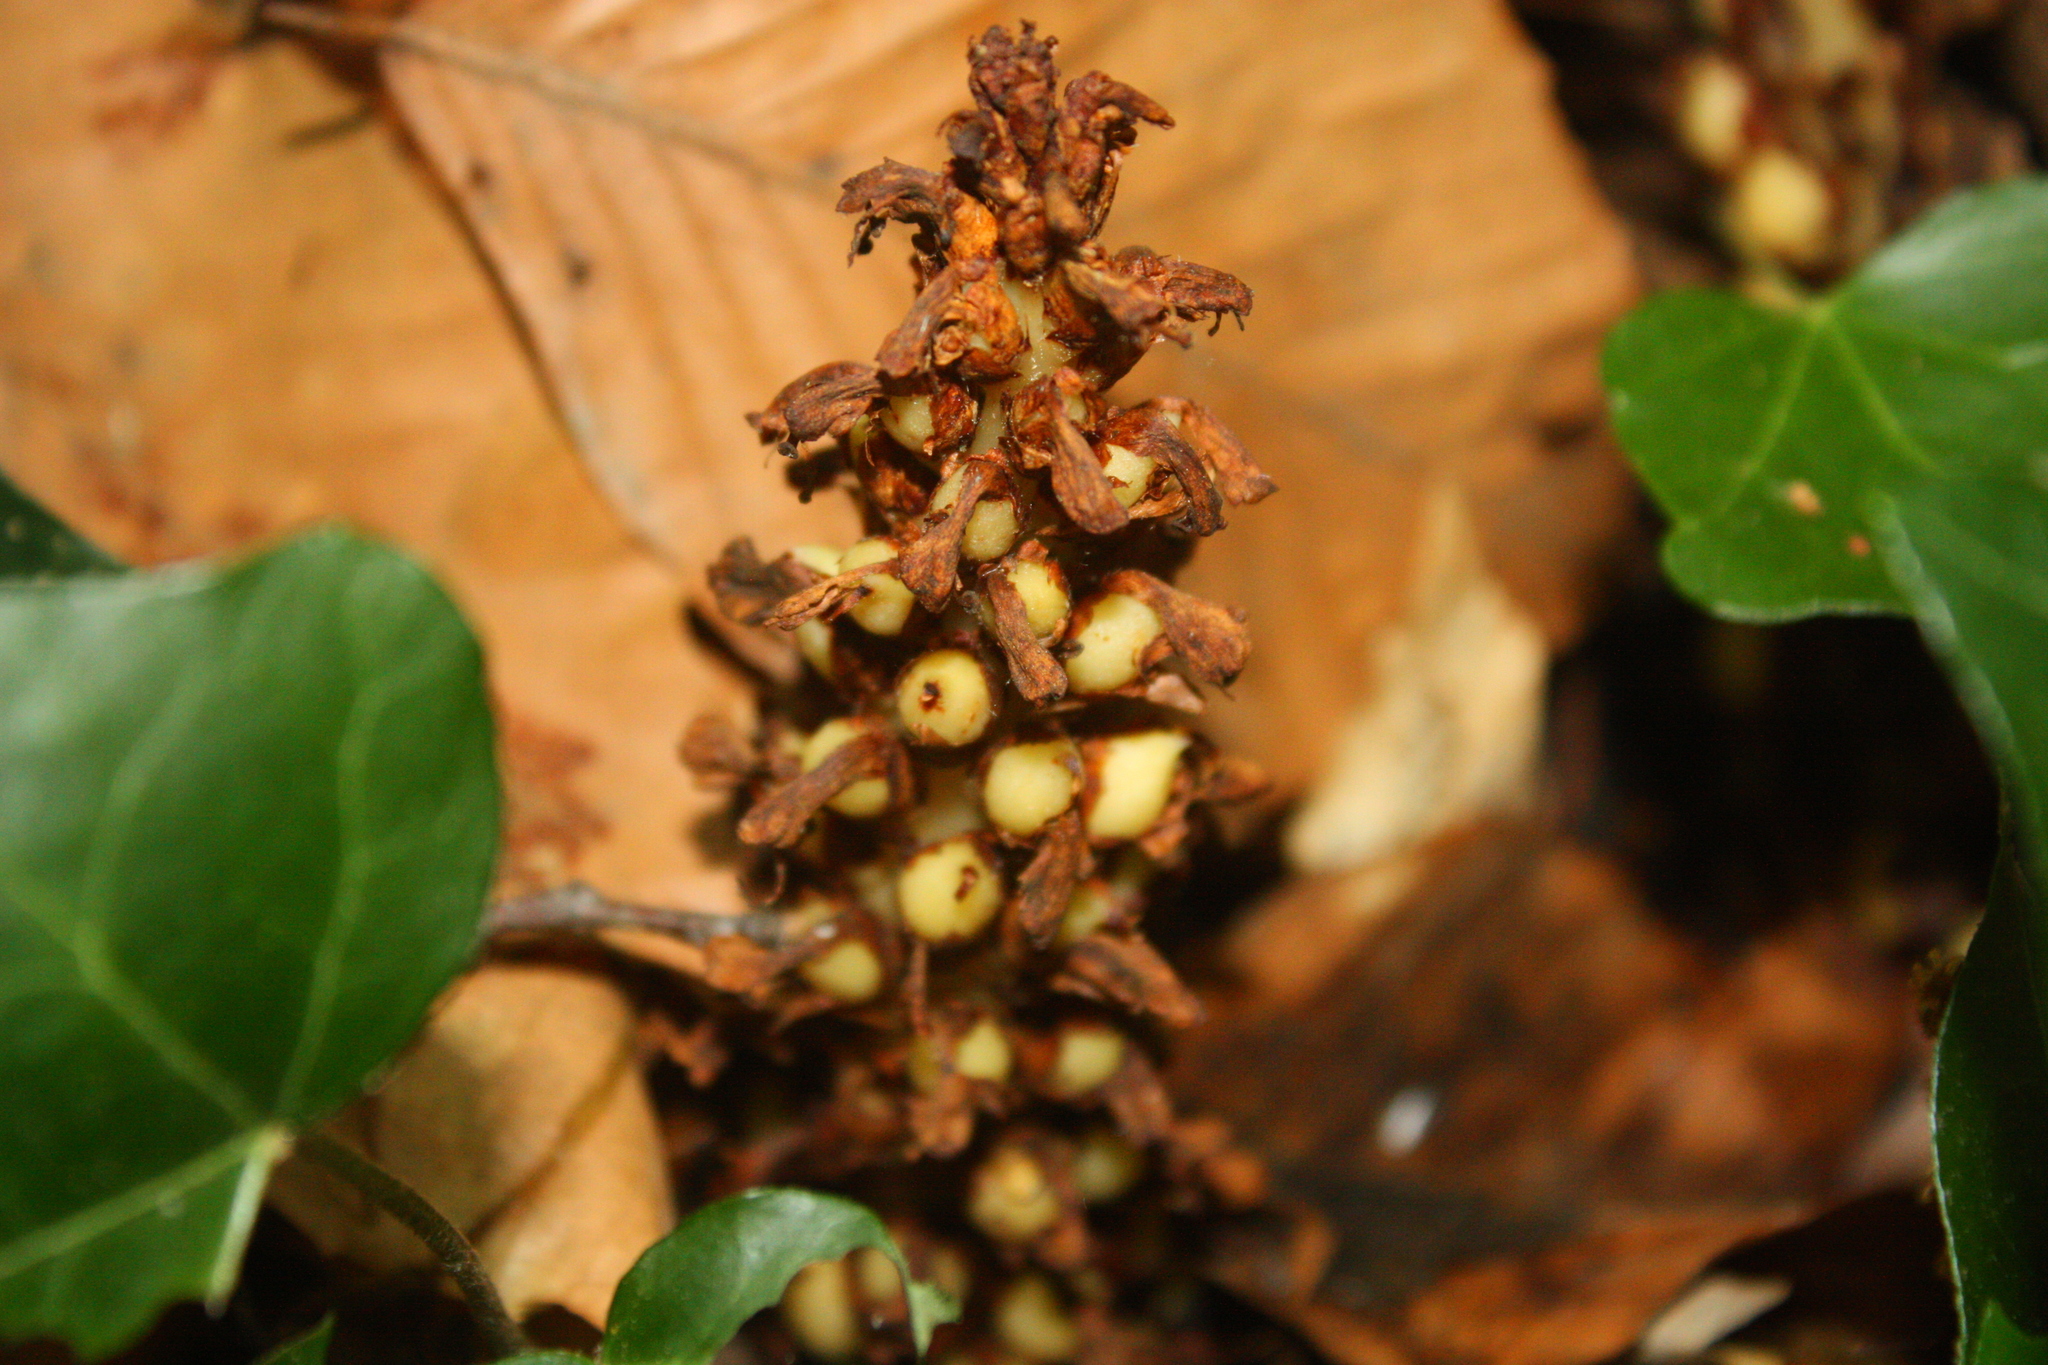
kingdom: Plantae
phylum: Tracheophyta
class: Magnoliopsida
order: Lamiales
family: Orobanchaceae
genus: Conopholis
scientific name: Conopholis americana
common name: American cancer-root
